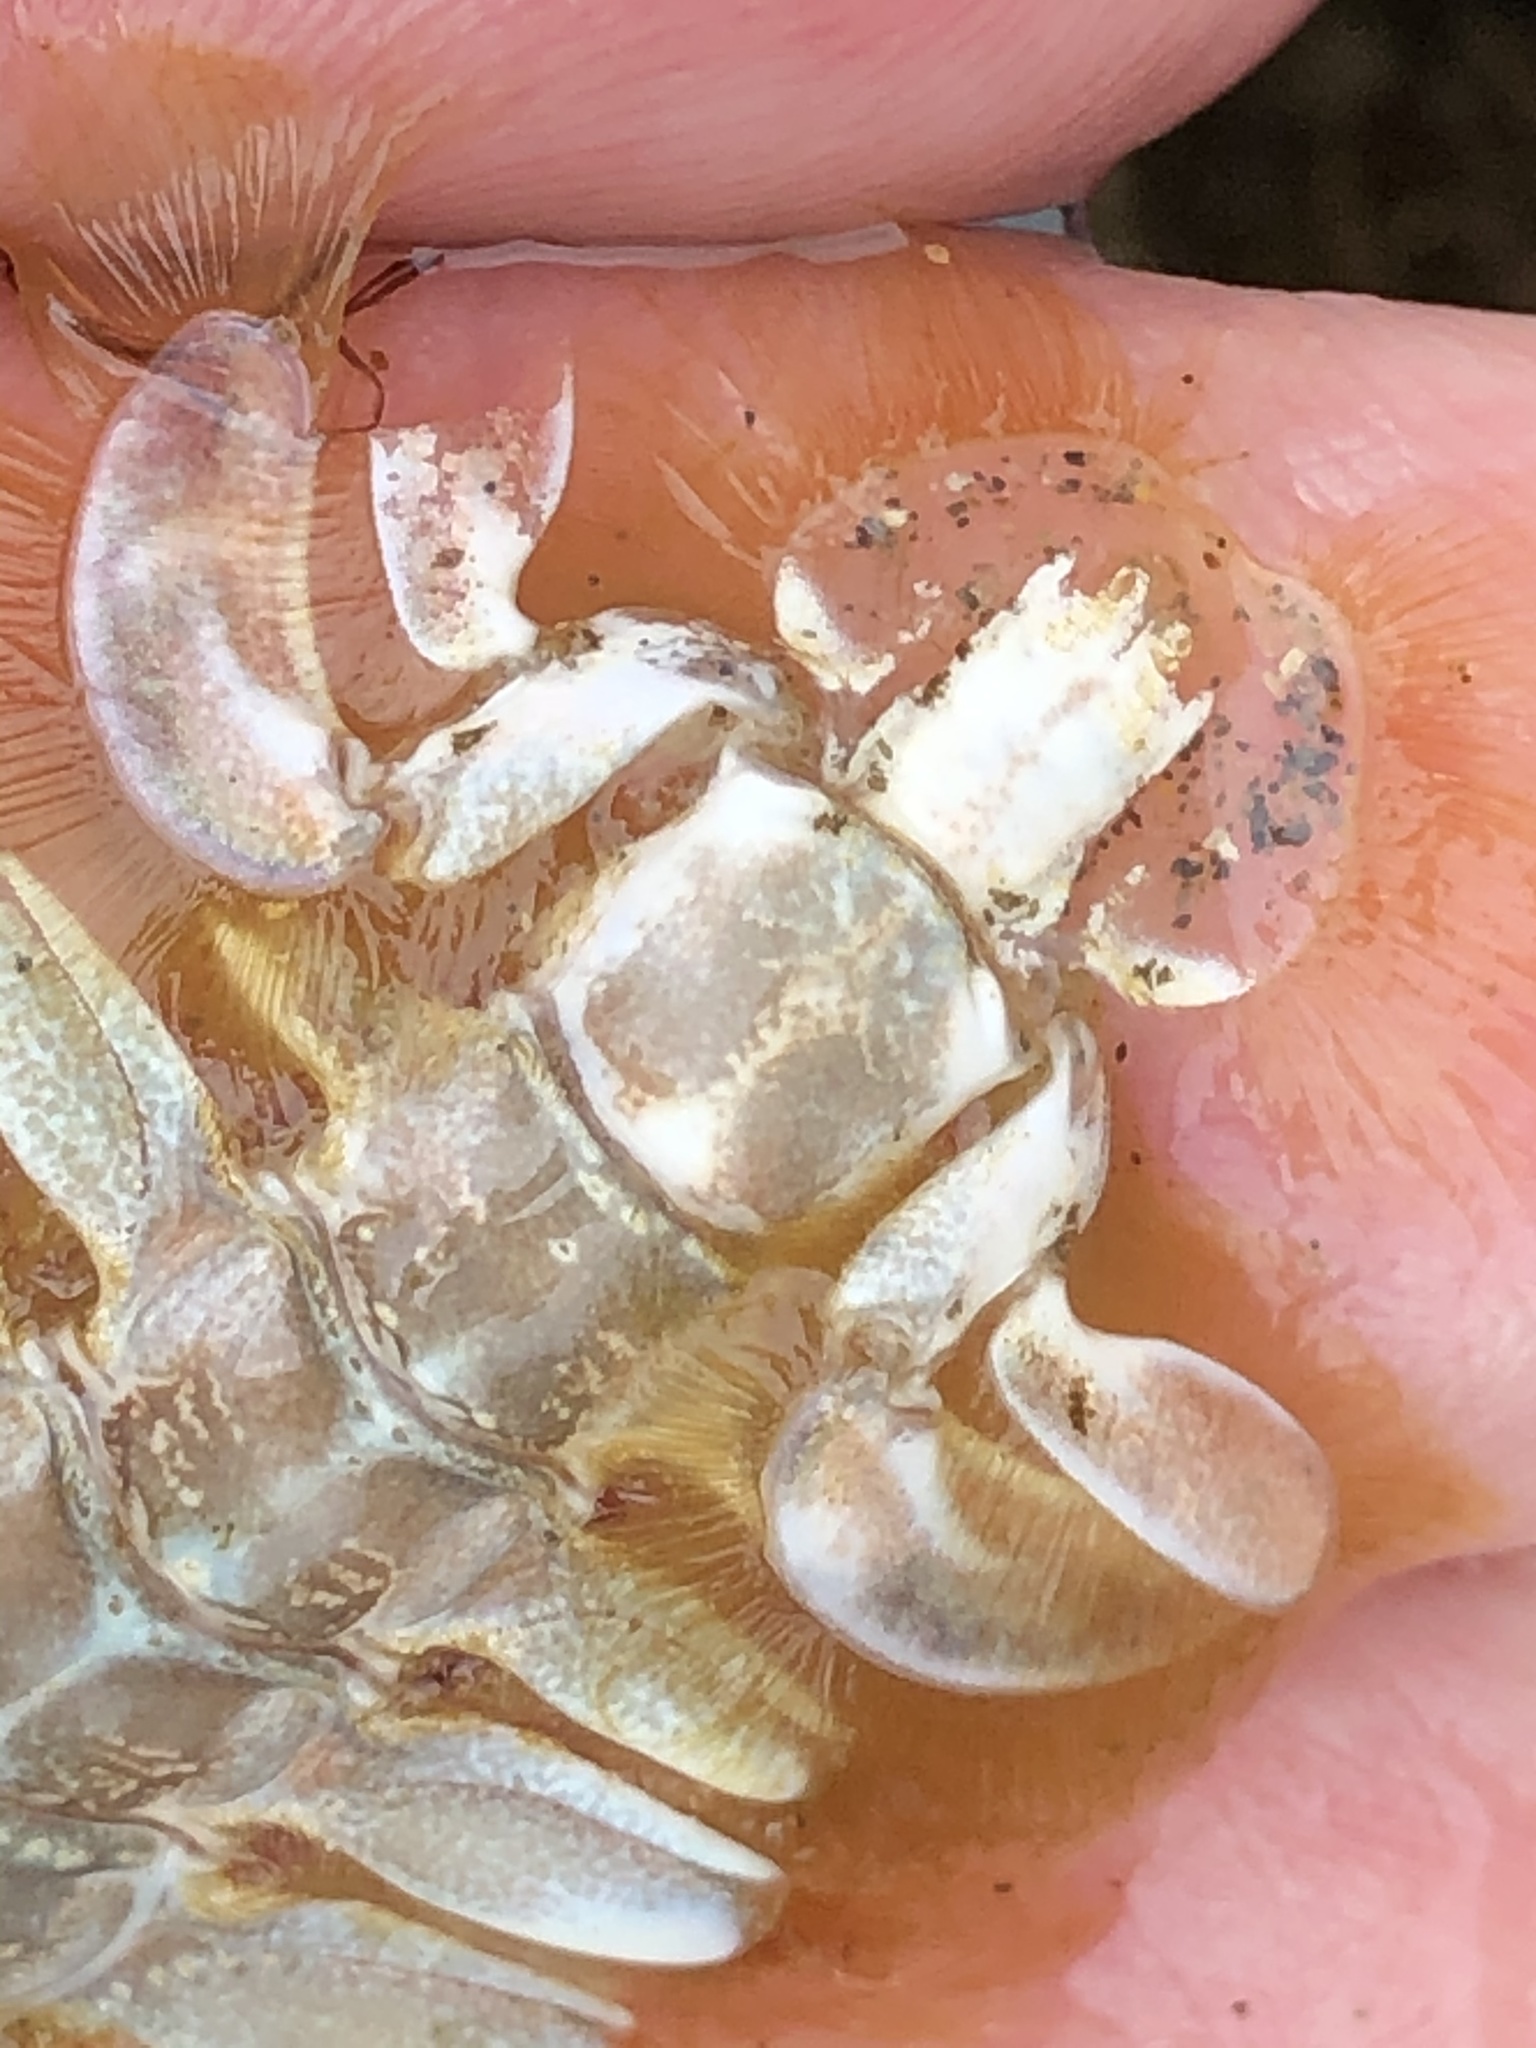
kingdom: Animalia
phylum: Arthropoda
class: Malacostraca
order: Decapoda
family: Callianassidae
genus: Neotrypaea
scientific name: Neotrypaea californiensis
